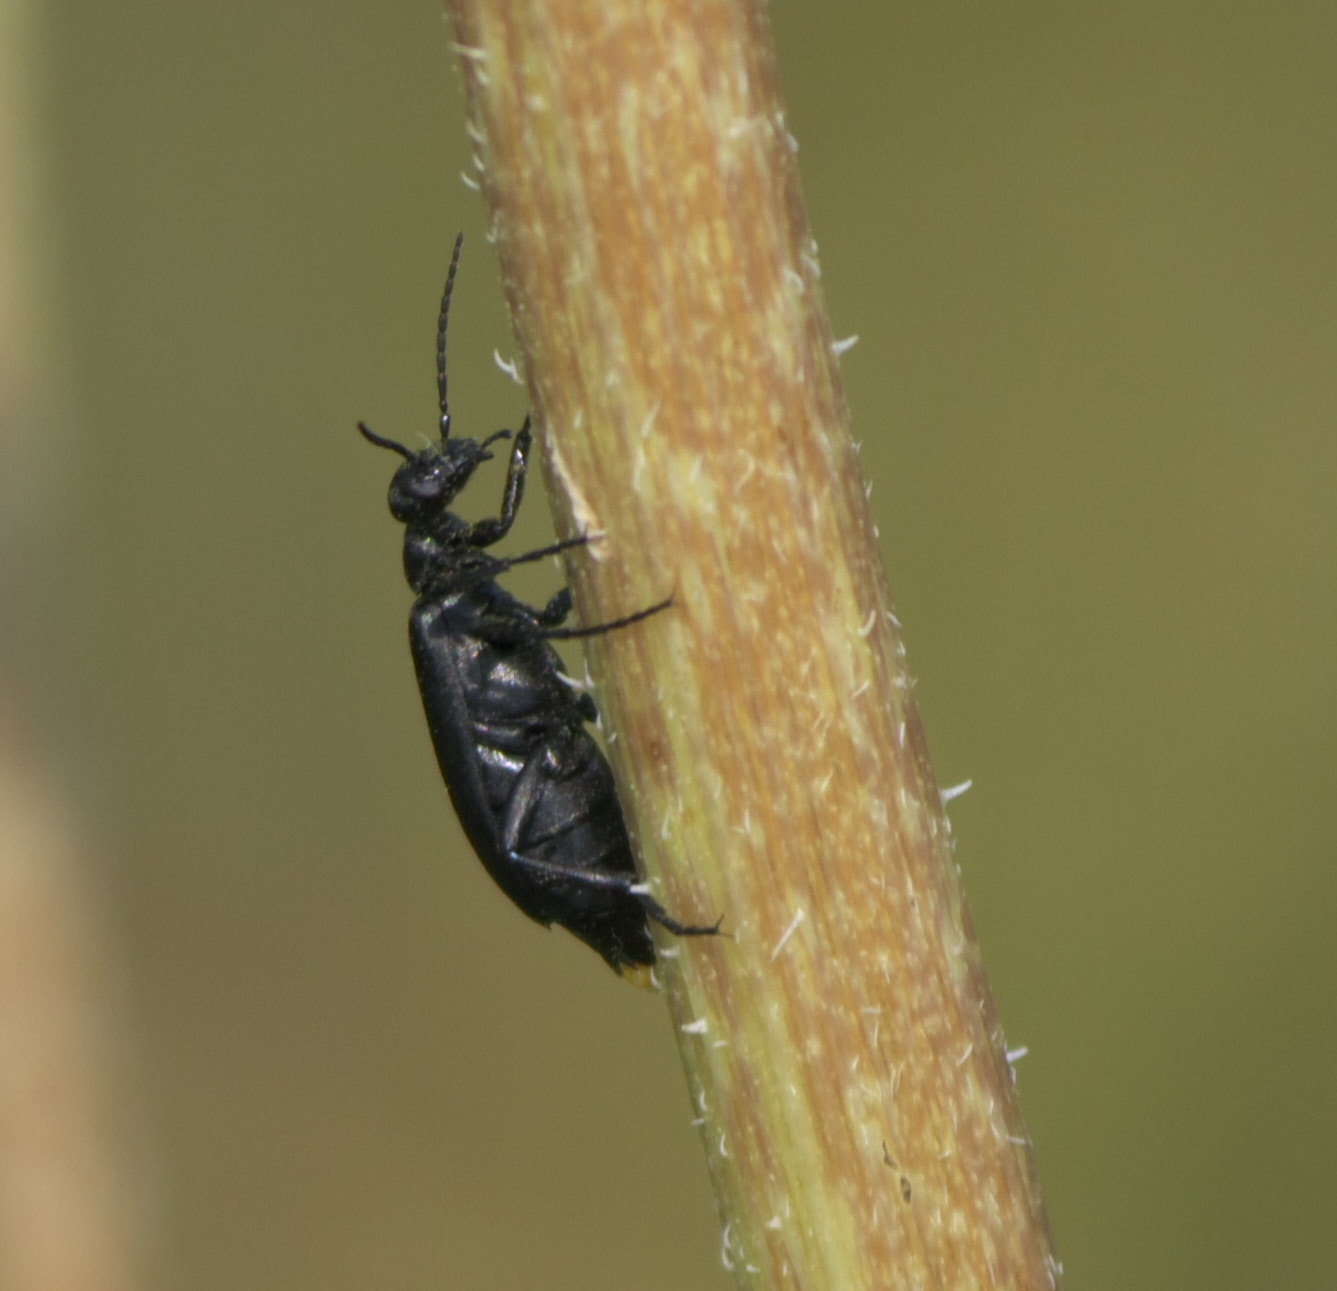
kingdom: Animalia
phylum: Arthropoda
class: Insecta
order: Coleoptera
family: Meloidae
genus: Epicauta
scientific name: Epicauta pensylvanica
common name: Black blister beetle
